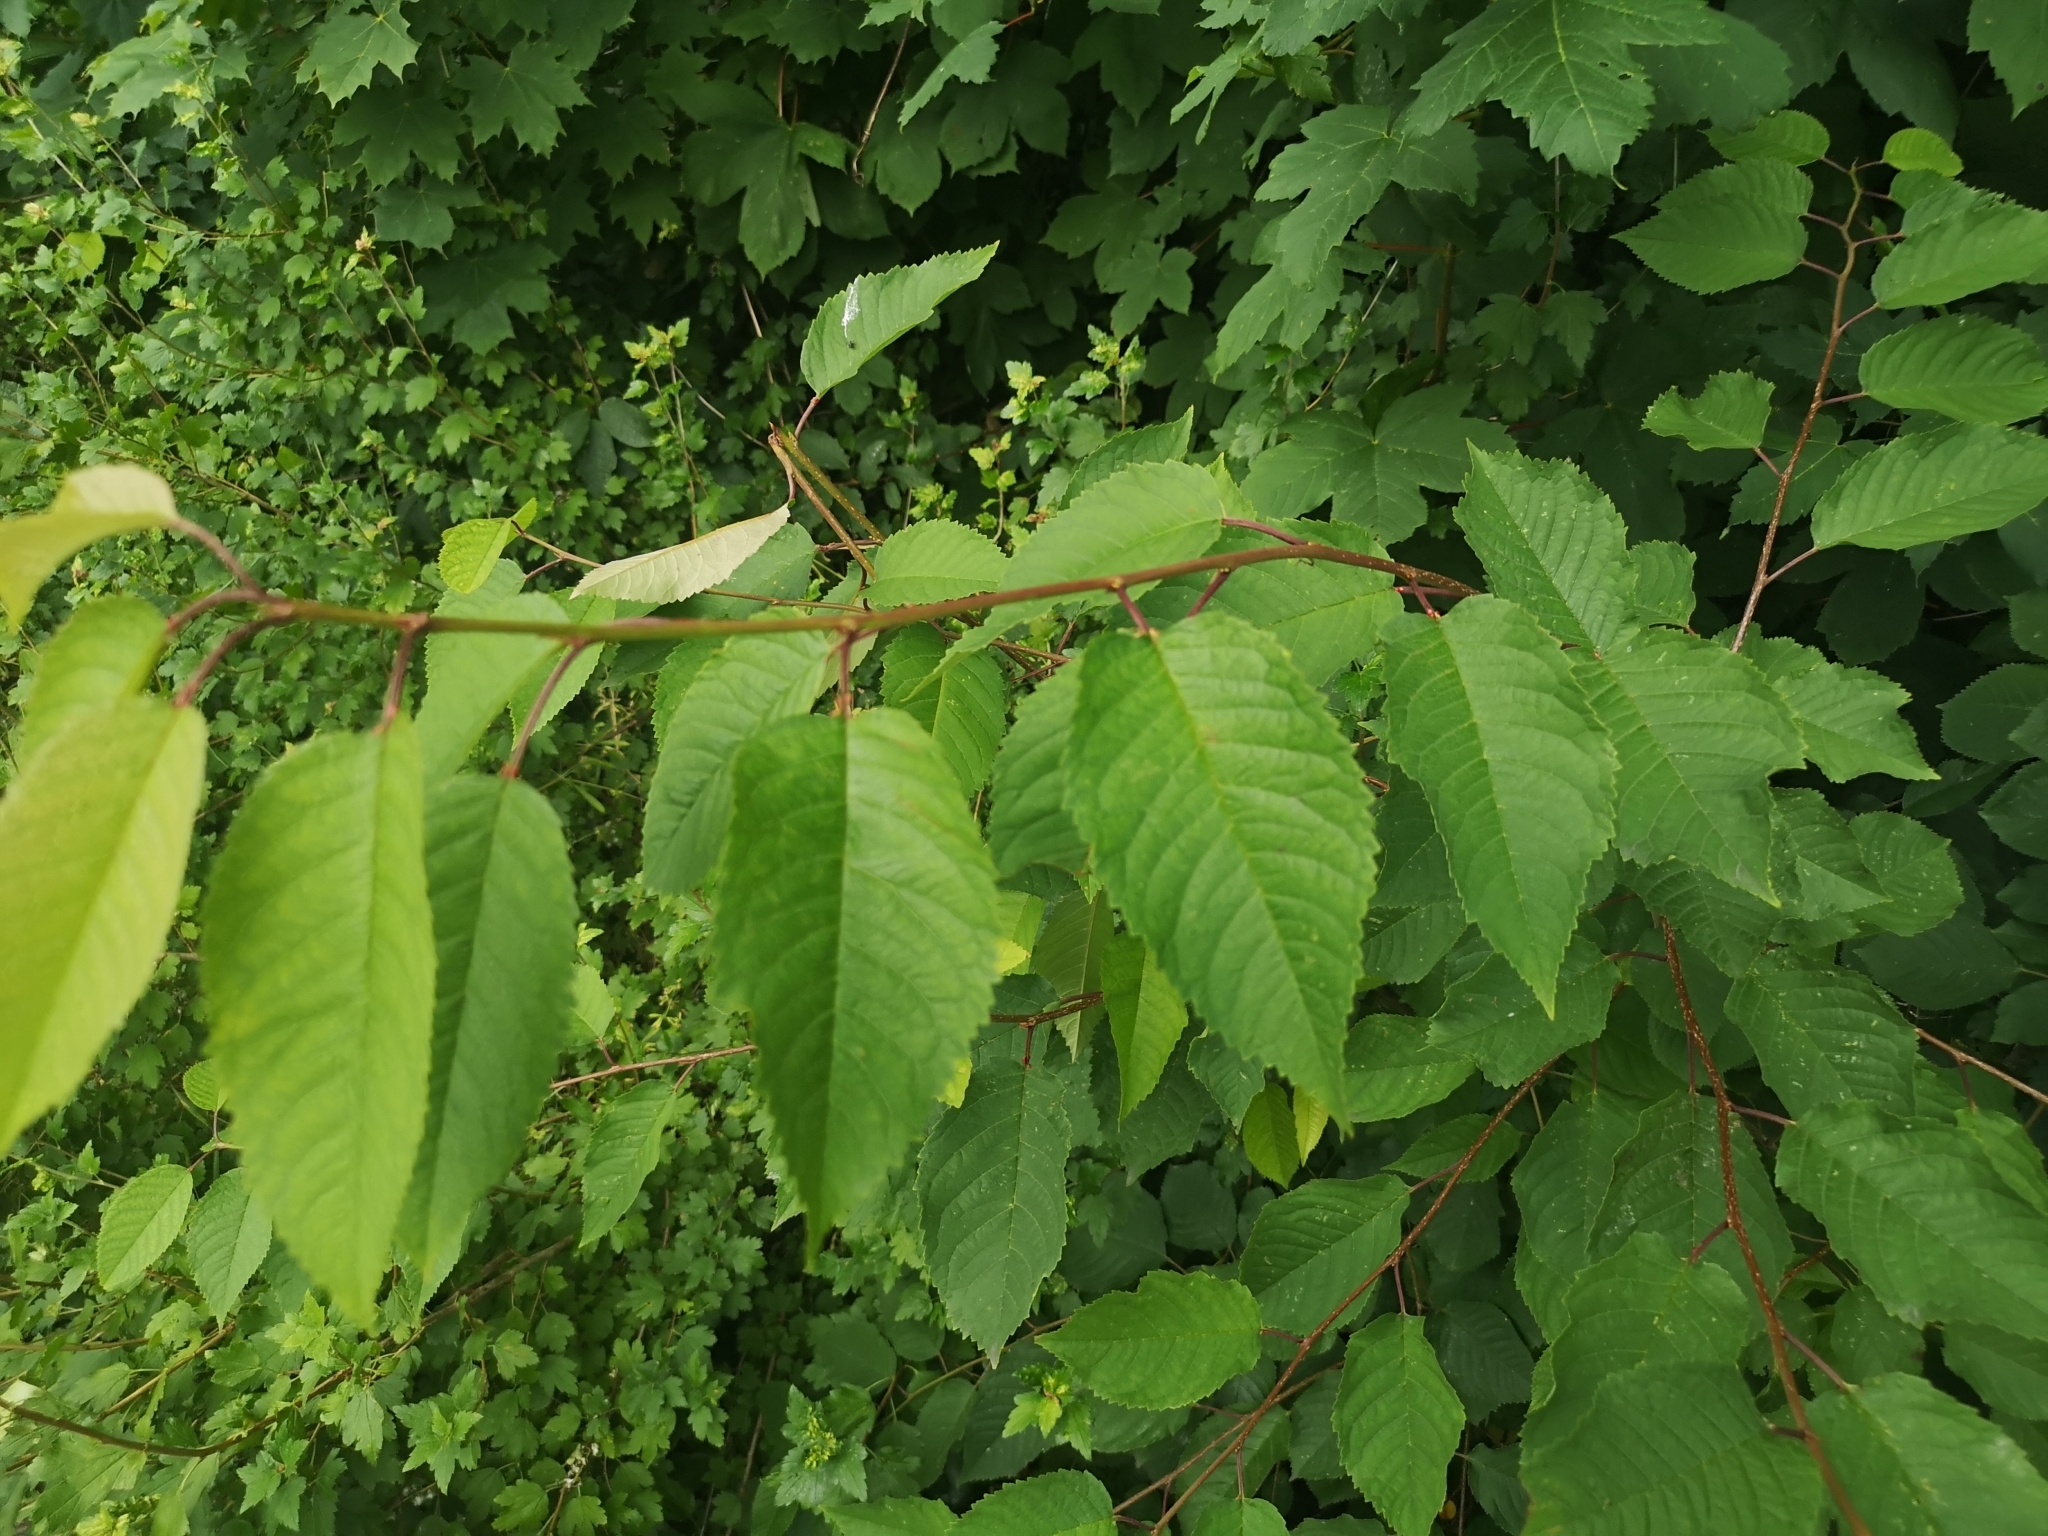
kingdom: Plantae
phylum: Tracheophyta
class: Magnoliopsida
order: Rosales
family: Rosaceae
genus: Prunus
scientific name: Prunus avium
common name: Sweet cherry
